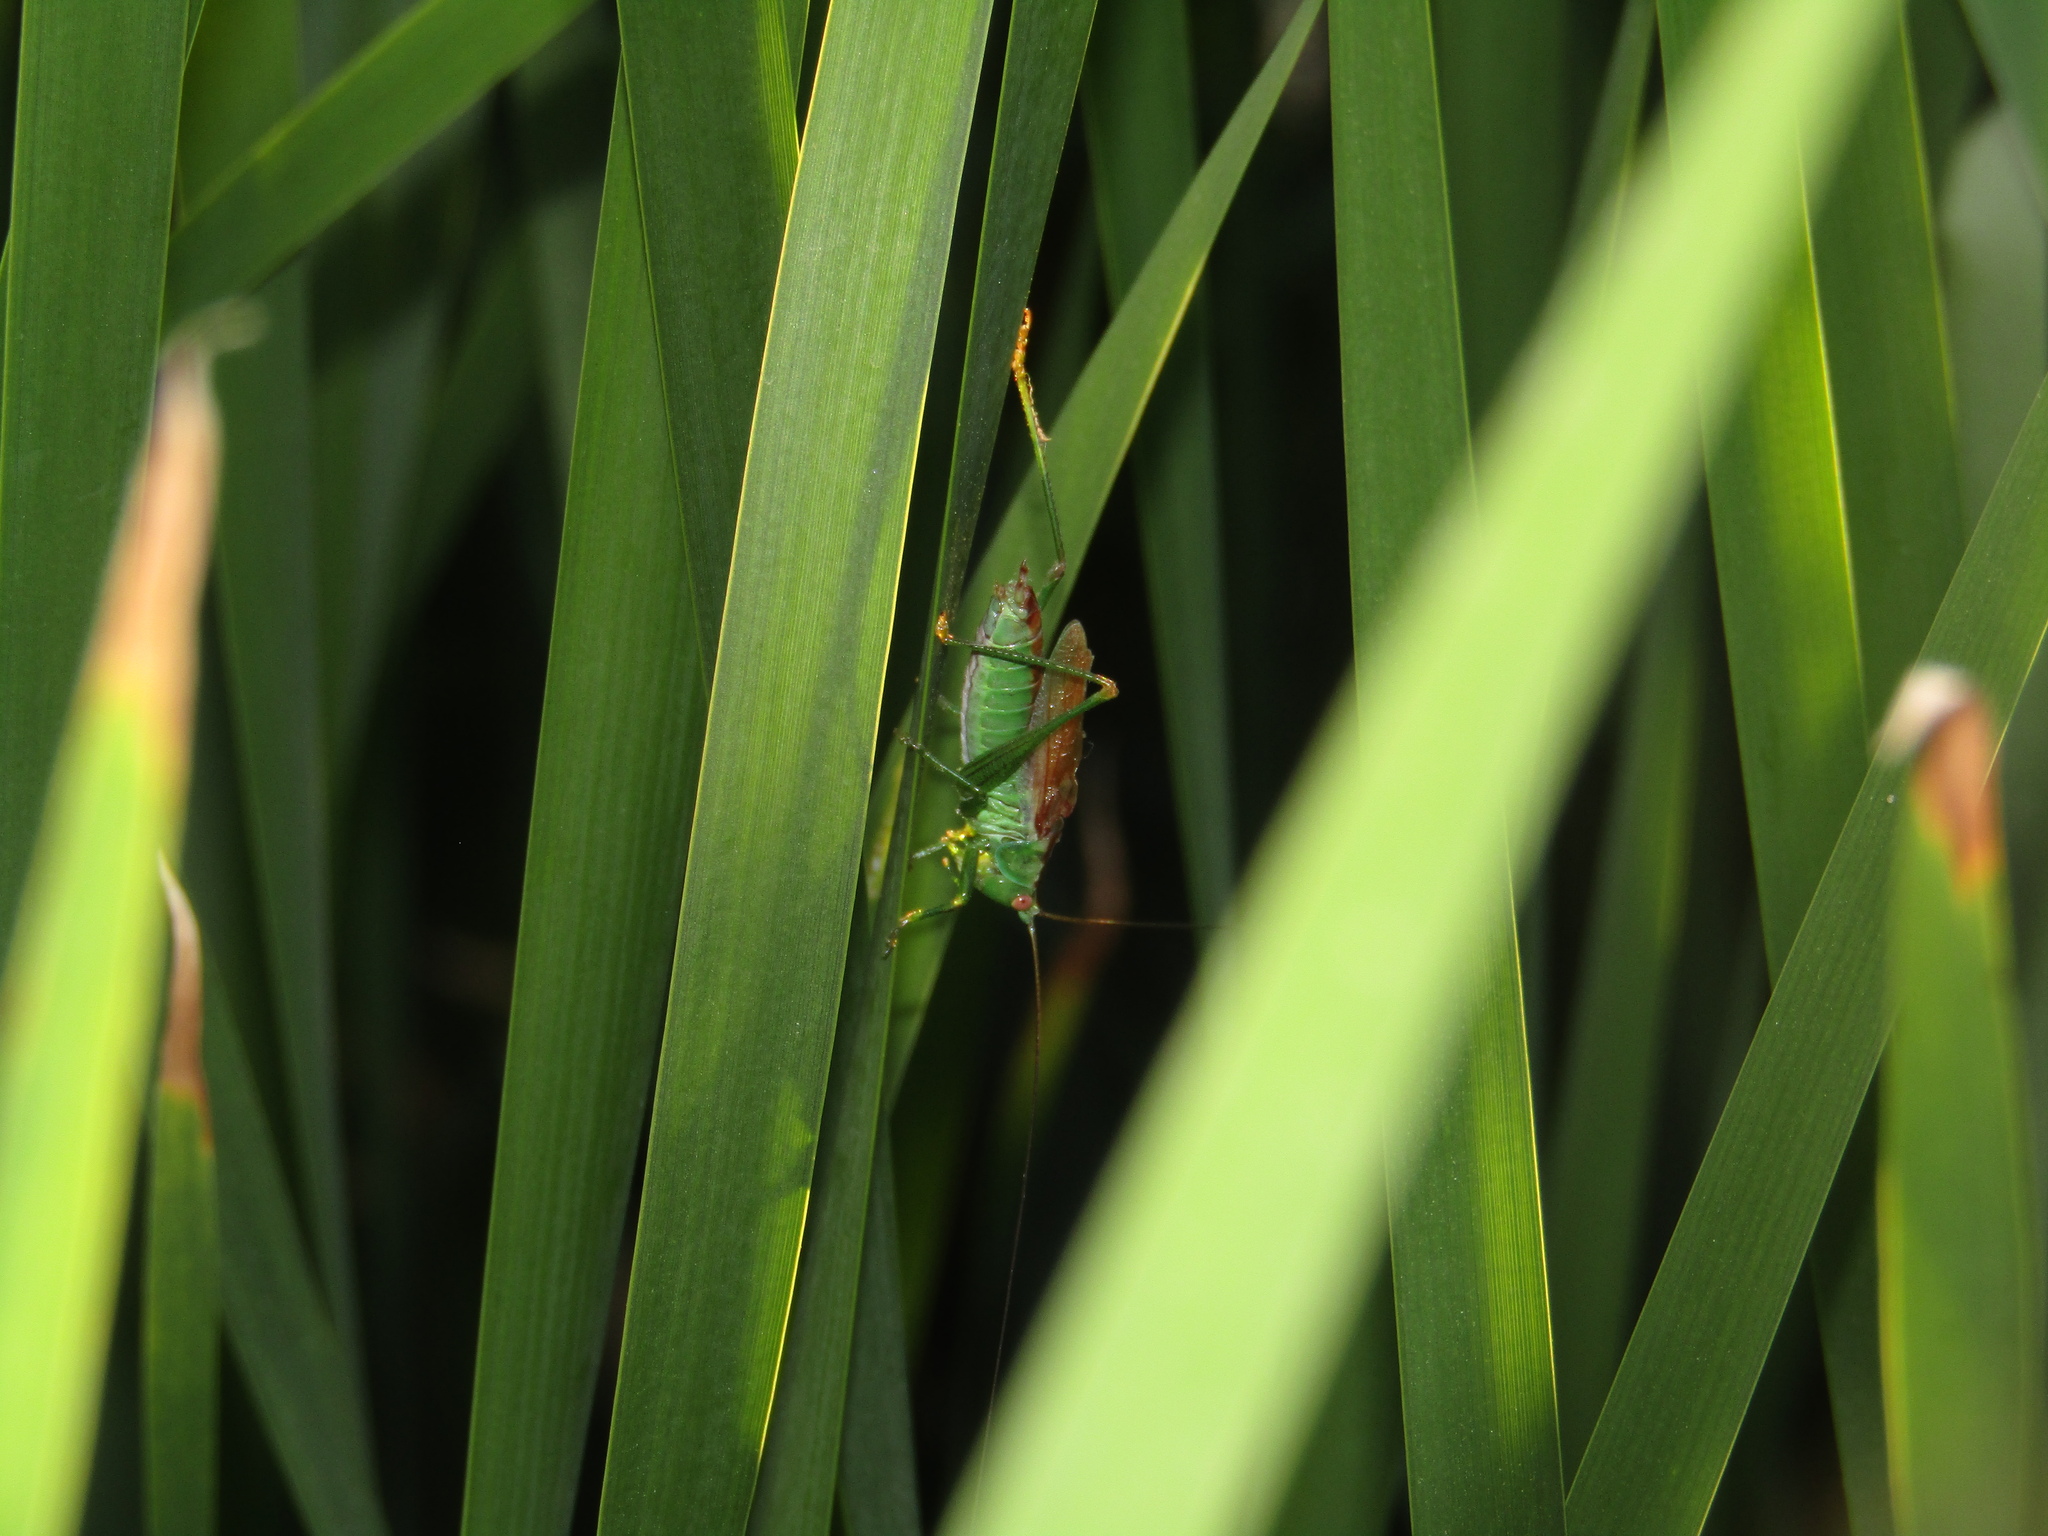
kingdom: Animalia
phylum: Arthropoda
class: Insecta
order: Orthoptera
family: Tettigoniidae
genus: Conocephalus
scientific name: Conocephalus fuscus
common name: Long-winged conehead
